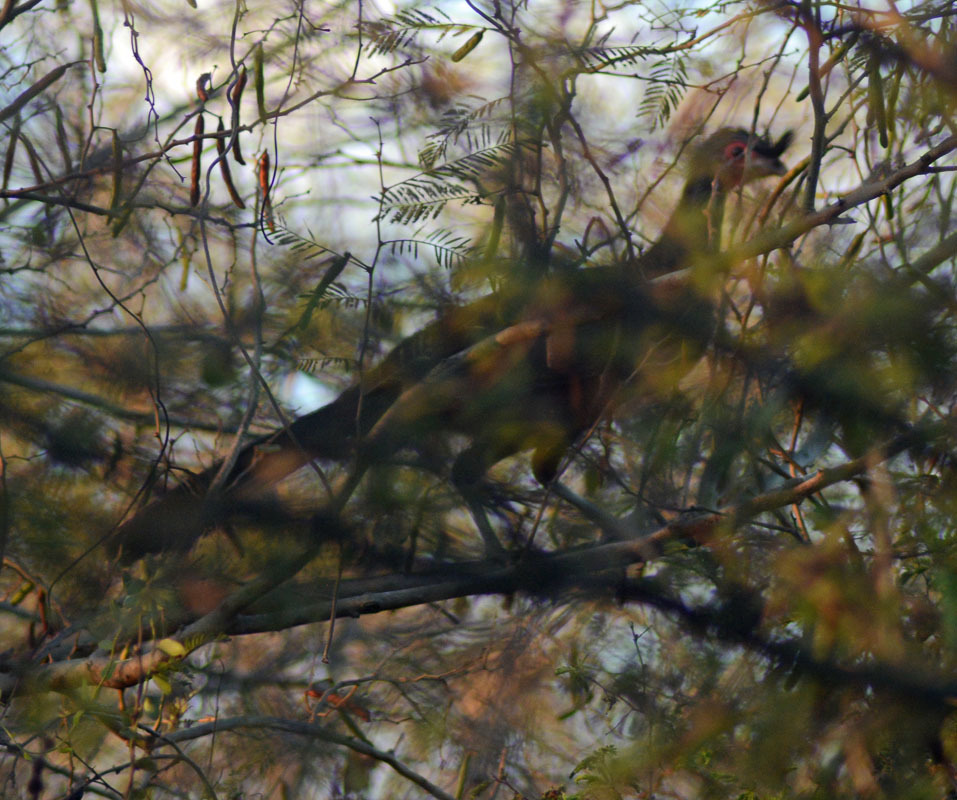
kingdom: Animalia
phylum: Chordata
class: Aves
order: Galliformes
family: Cracidae
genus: Ortalis
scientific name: Ortalis wagleri
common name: Rufous-bellied chachalaca
